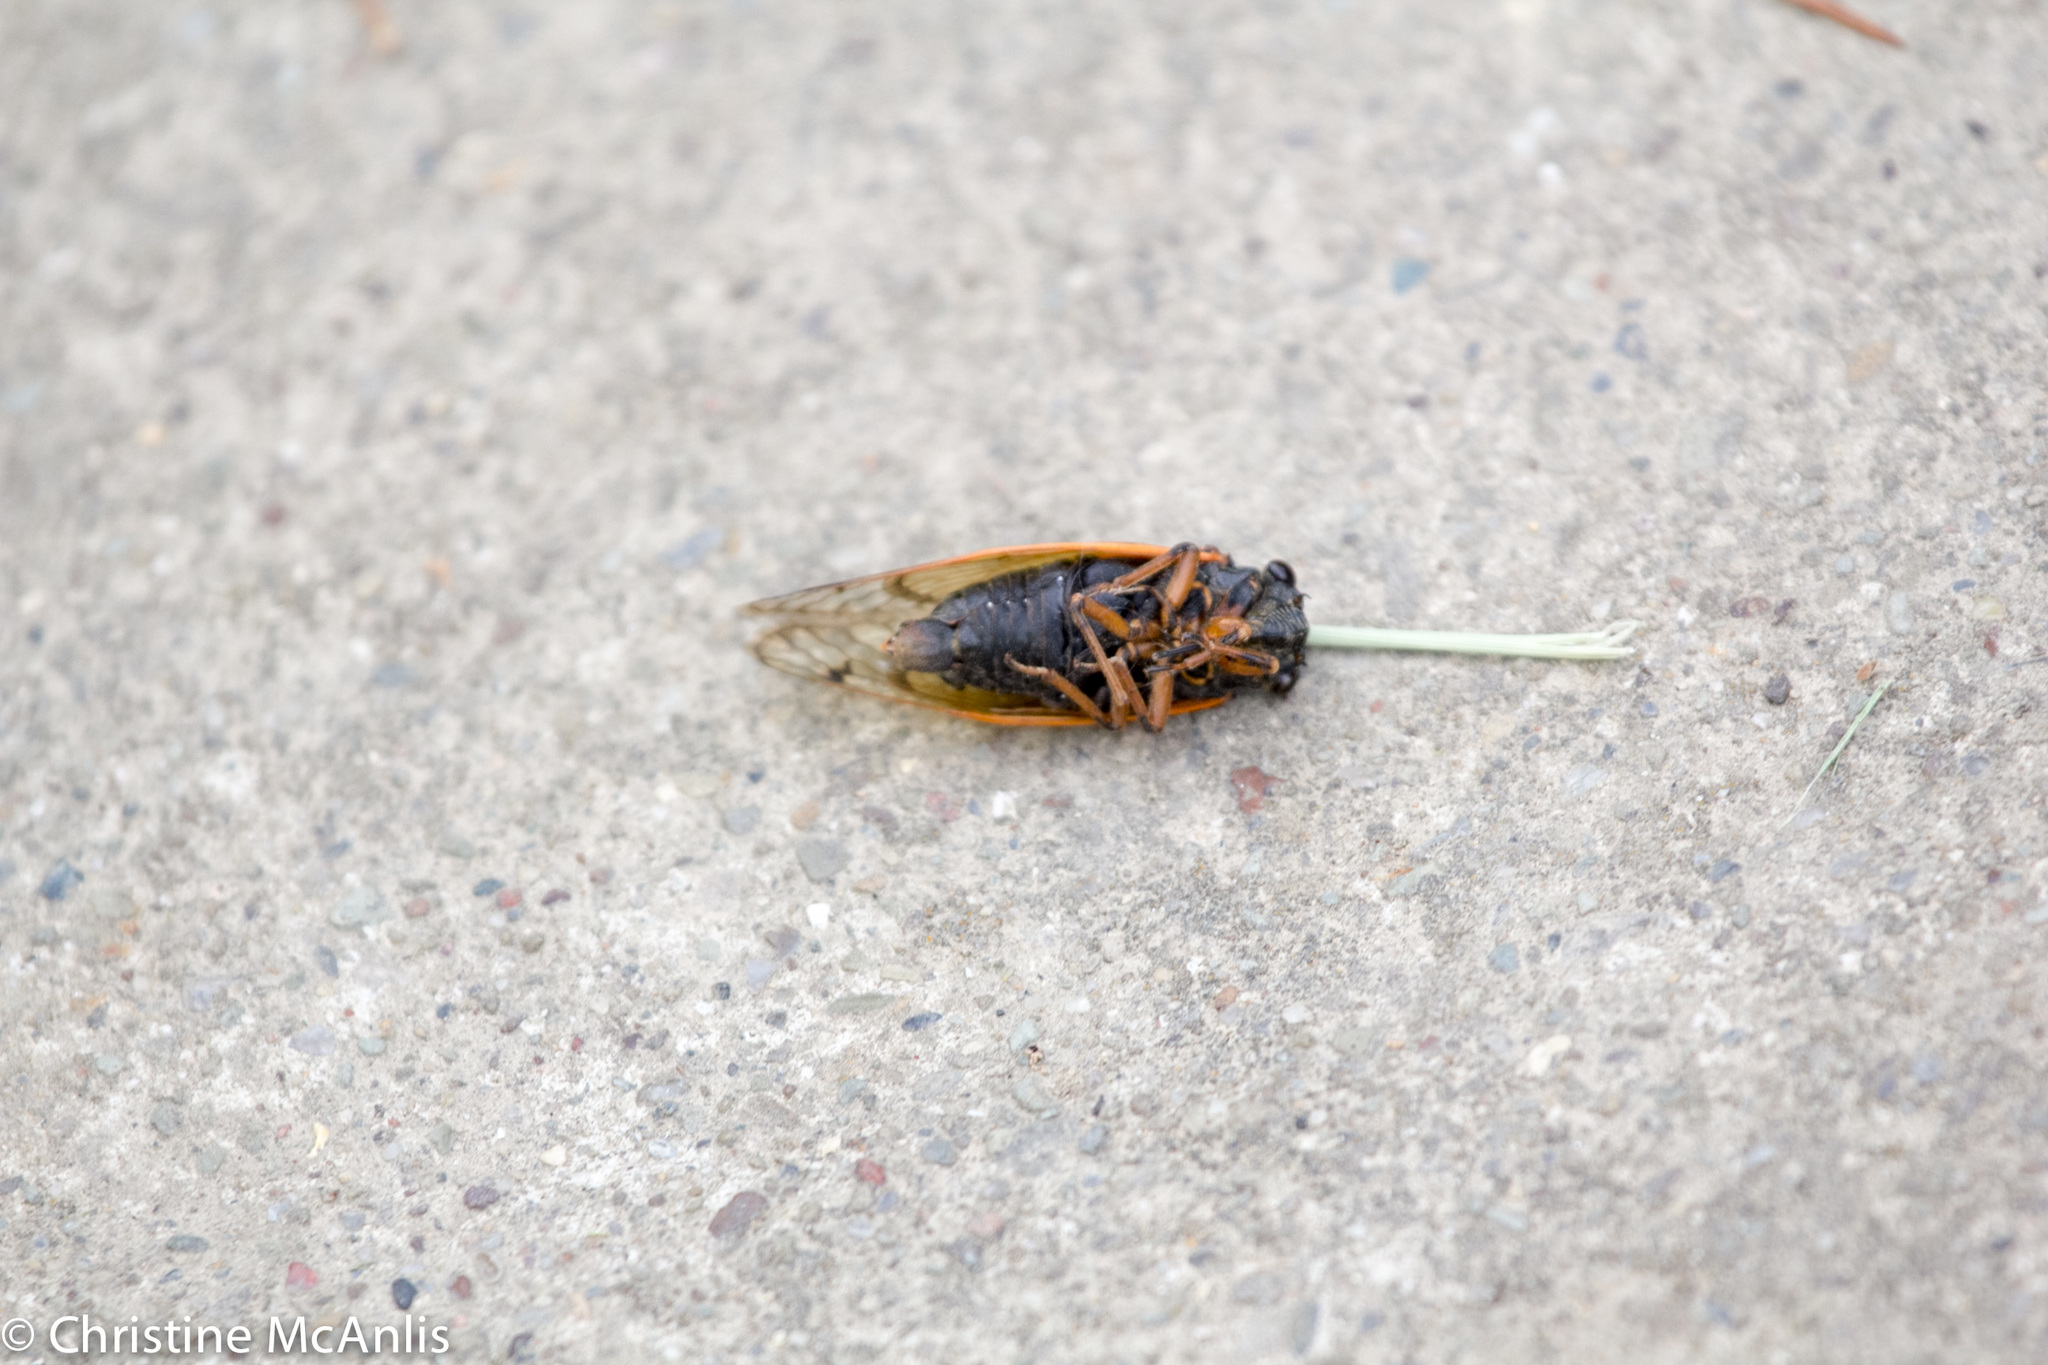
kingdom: Animalia
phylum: Arthropoda
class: Insecta
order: Hemiptera
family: Cicadidae
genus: Magicicada
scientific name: Magicicada cassini
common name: Cassin's 17-year cicada
